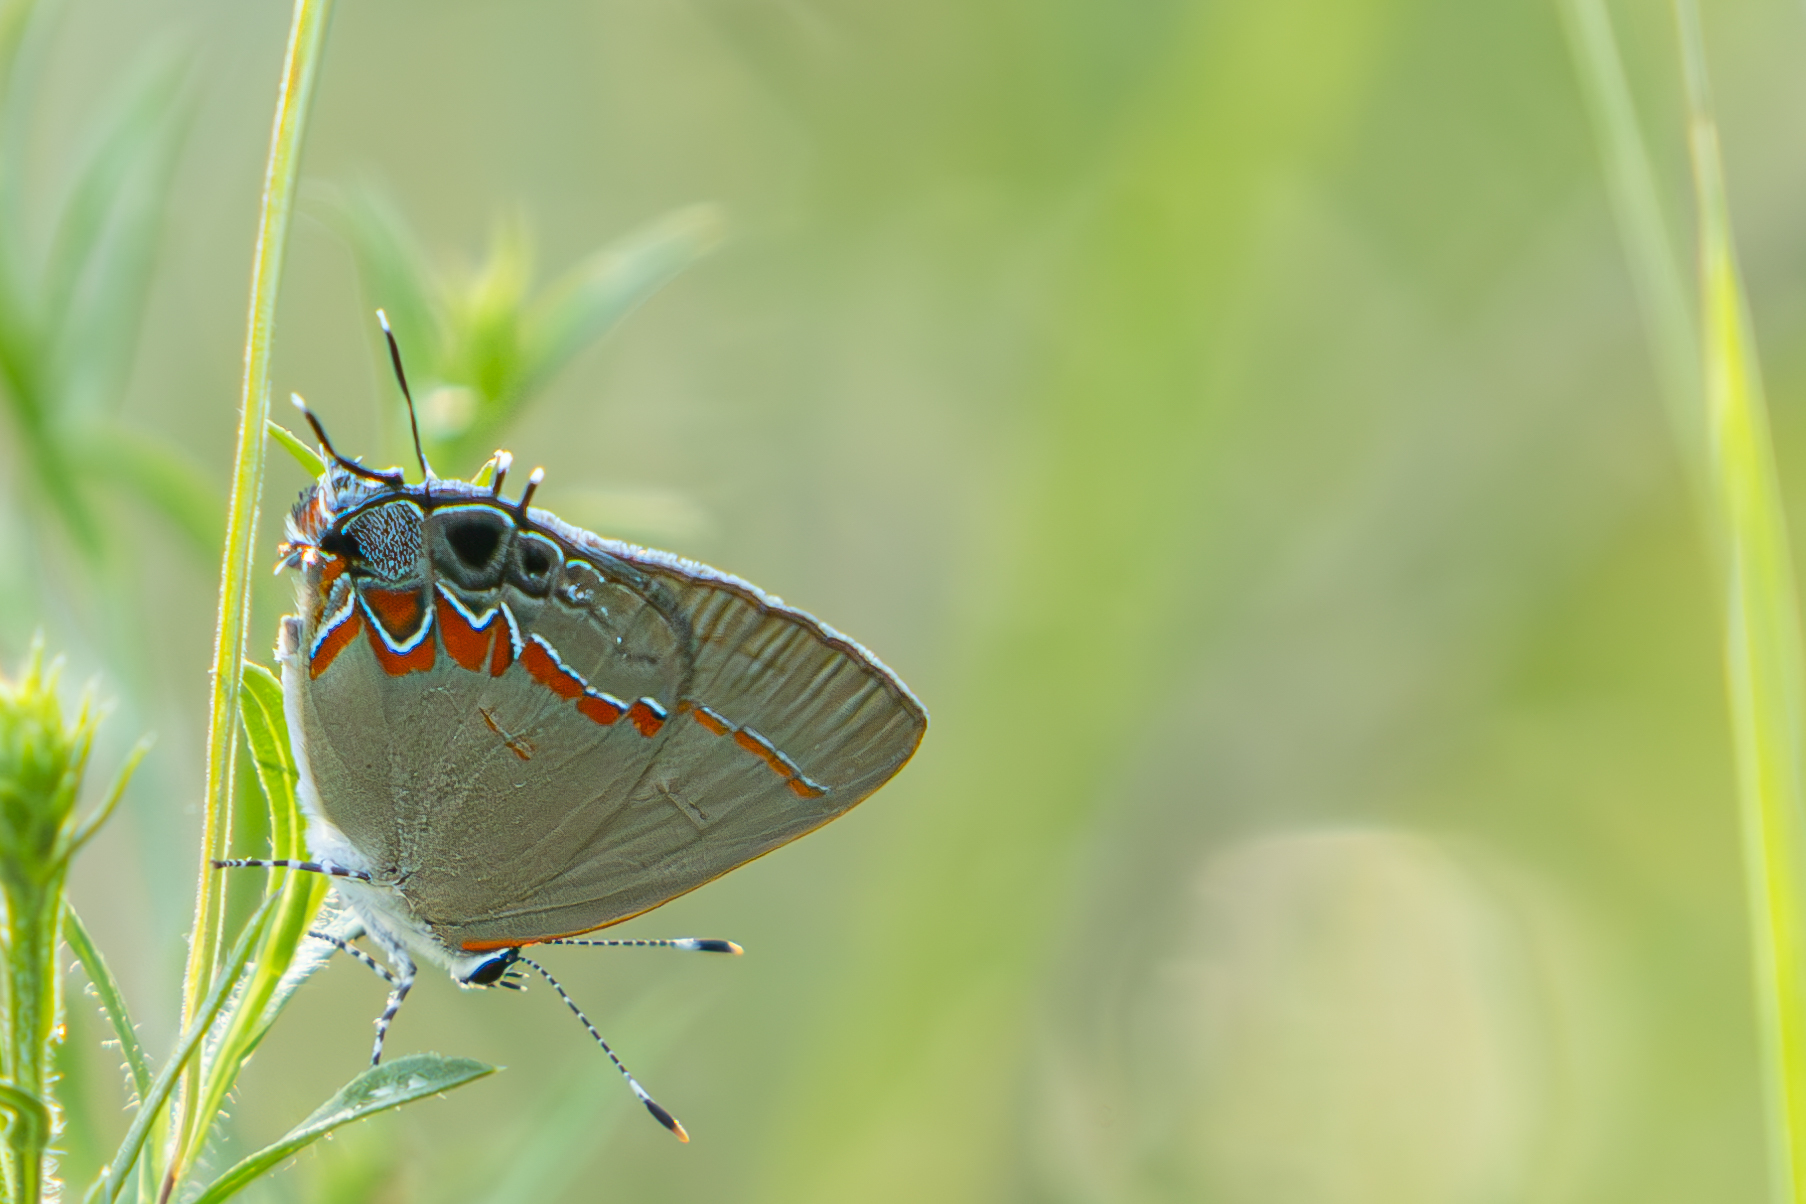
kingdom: Animalia
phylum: Arthropoda
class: Insecta
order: Lepidoptera
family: Lycaenidae
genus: Calycopis
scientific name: Calycopis cecrops
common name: Red-banded hairstreak
